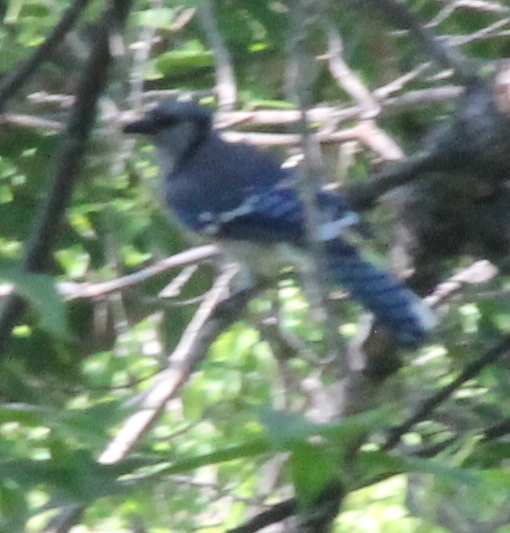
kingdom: Animalia
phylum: Chordata
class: Aves
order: Passeriformes
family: Corvidae
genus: Cyanocitta
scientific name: Cyanocitta cristata
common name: Blue jay
